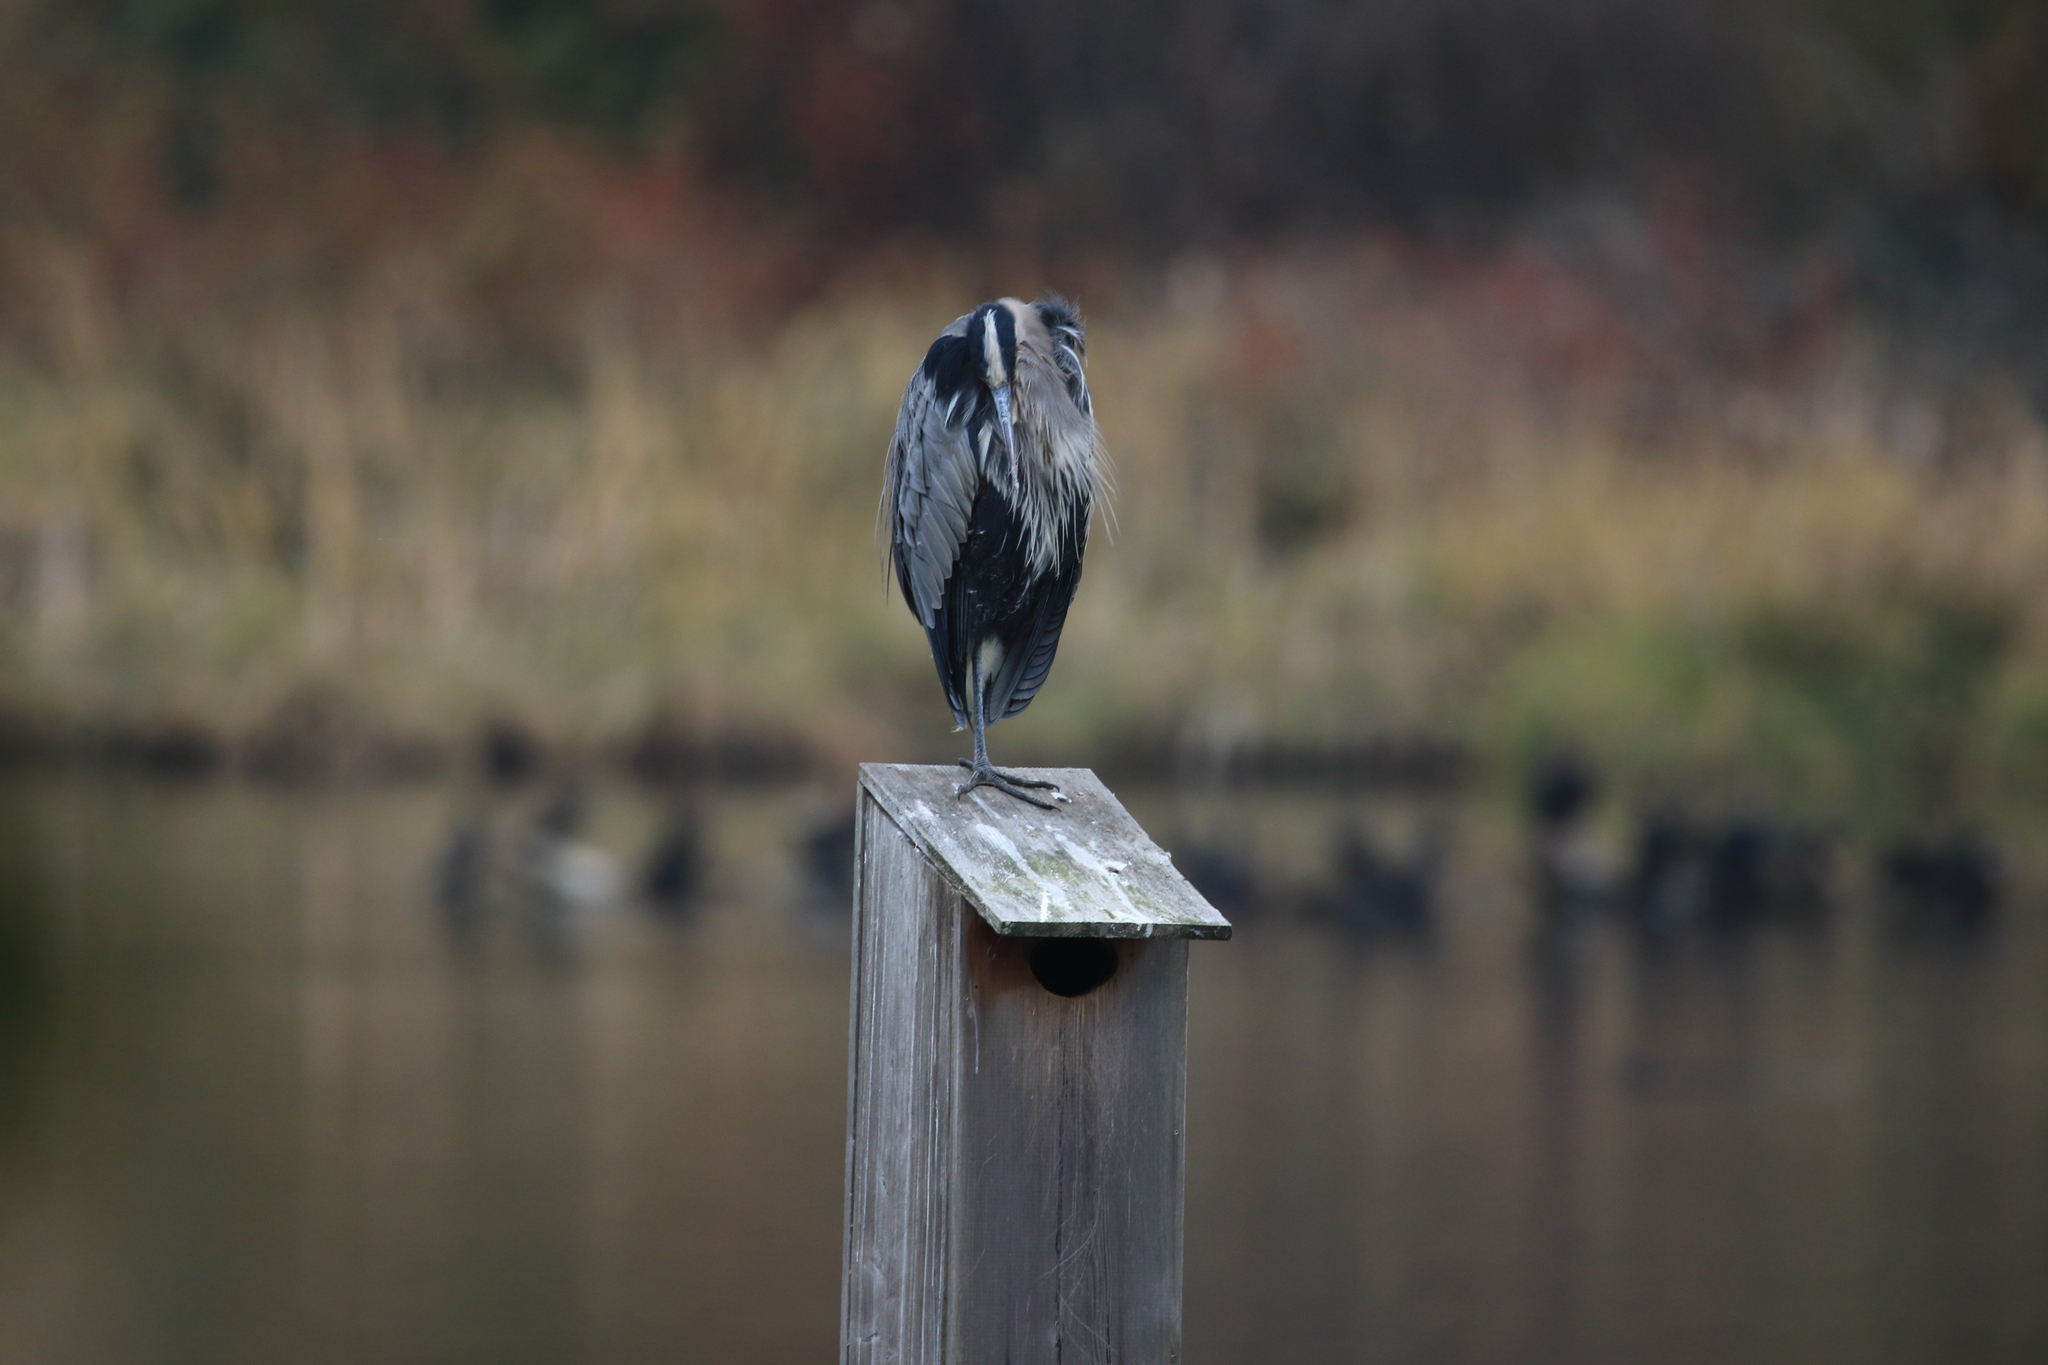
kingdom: Animalia
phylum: Chordata
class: Aves
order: Pelecaniformes
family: Ardeidae
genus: Ardea
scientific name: Ardea herodias
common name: Great blue heron
